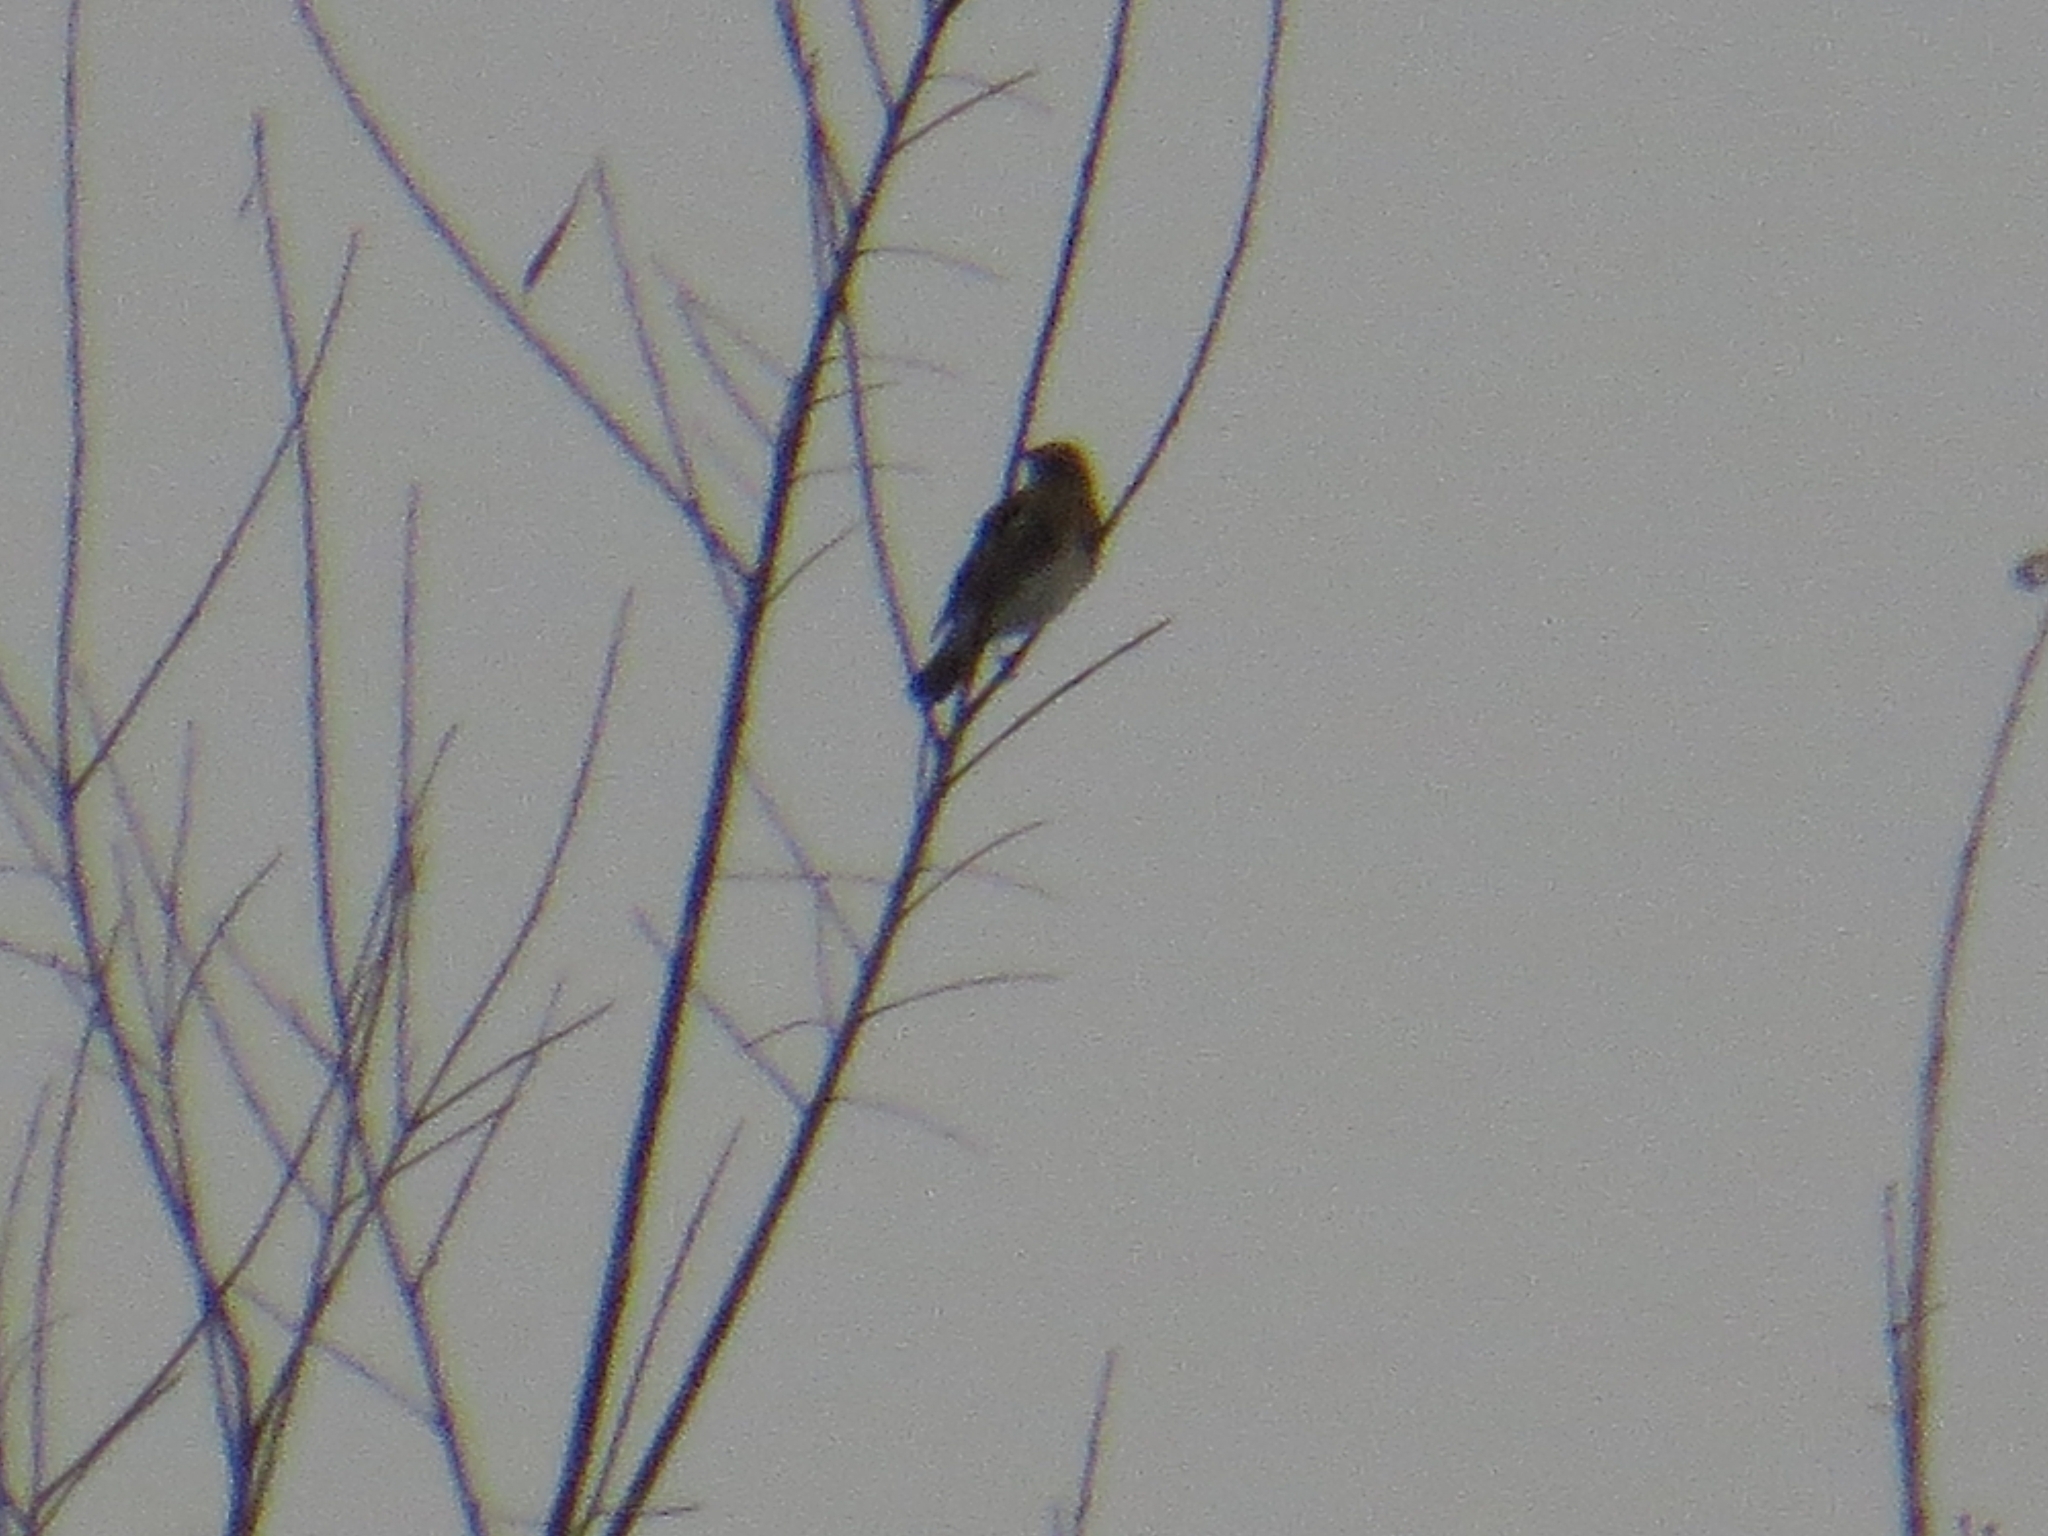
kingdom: Animalia
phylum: Chordata
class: Aves
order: Passeriformes
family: Turdidae
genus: Turdus
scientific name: Turdus pilaris
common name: Fieldfare
